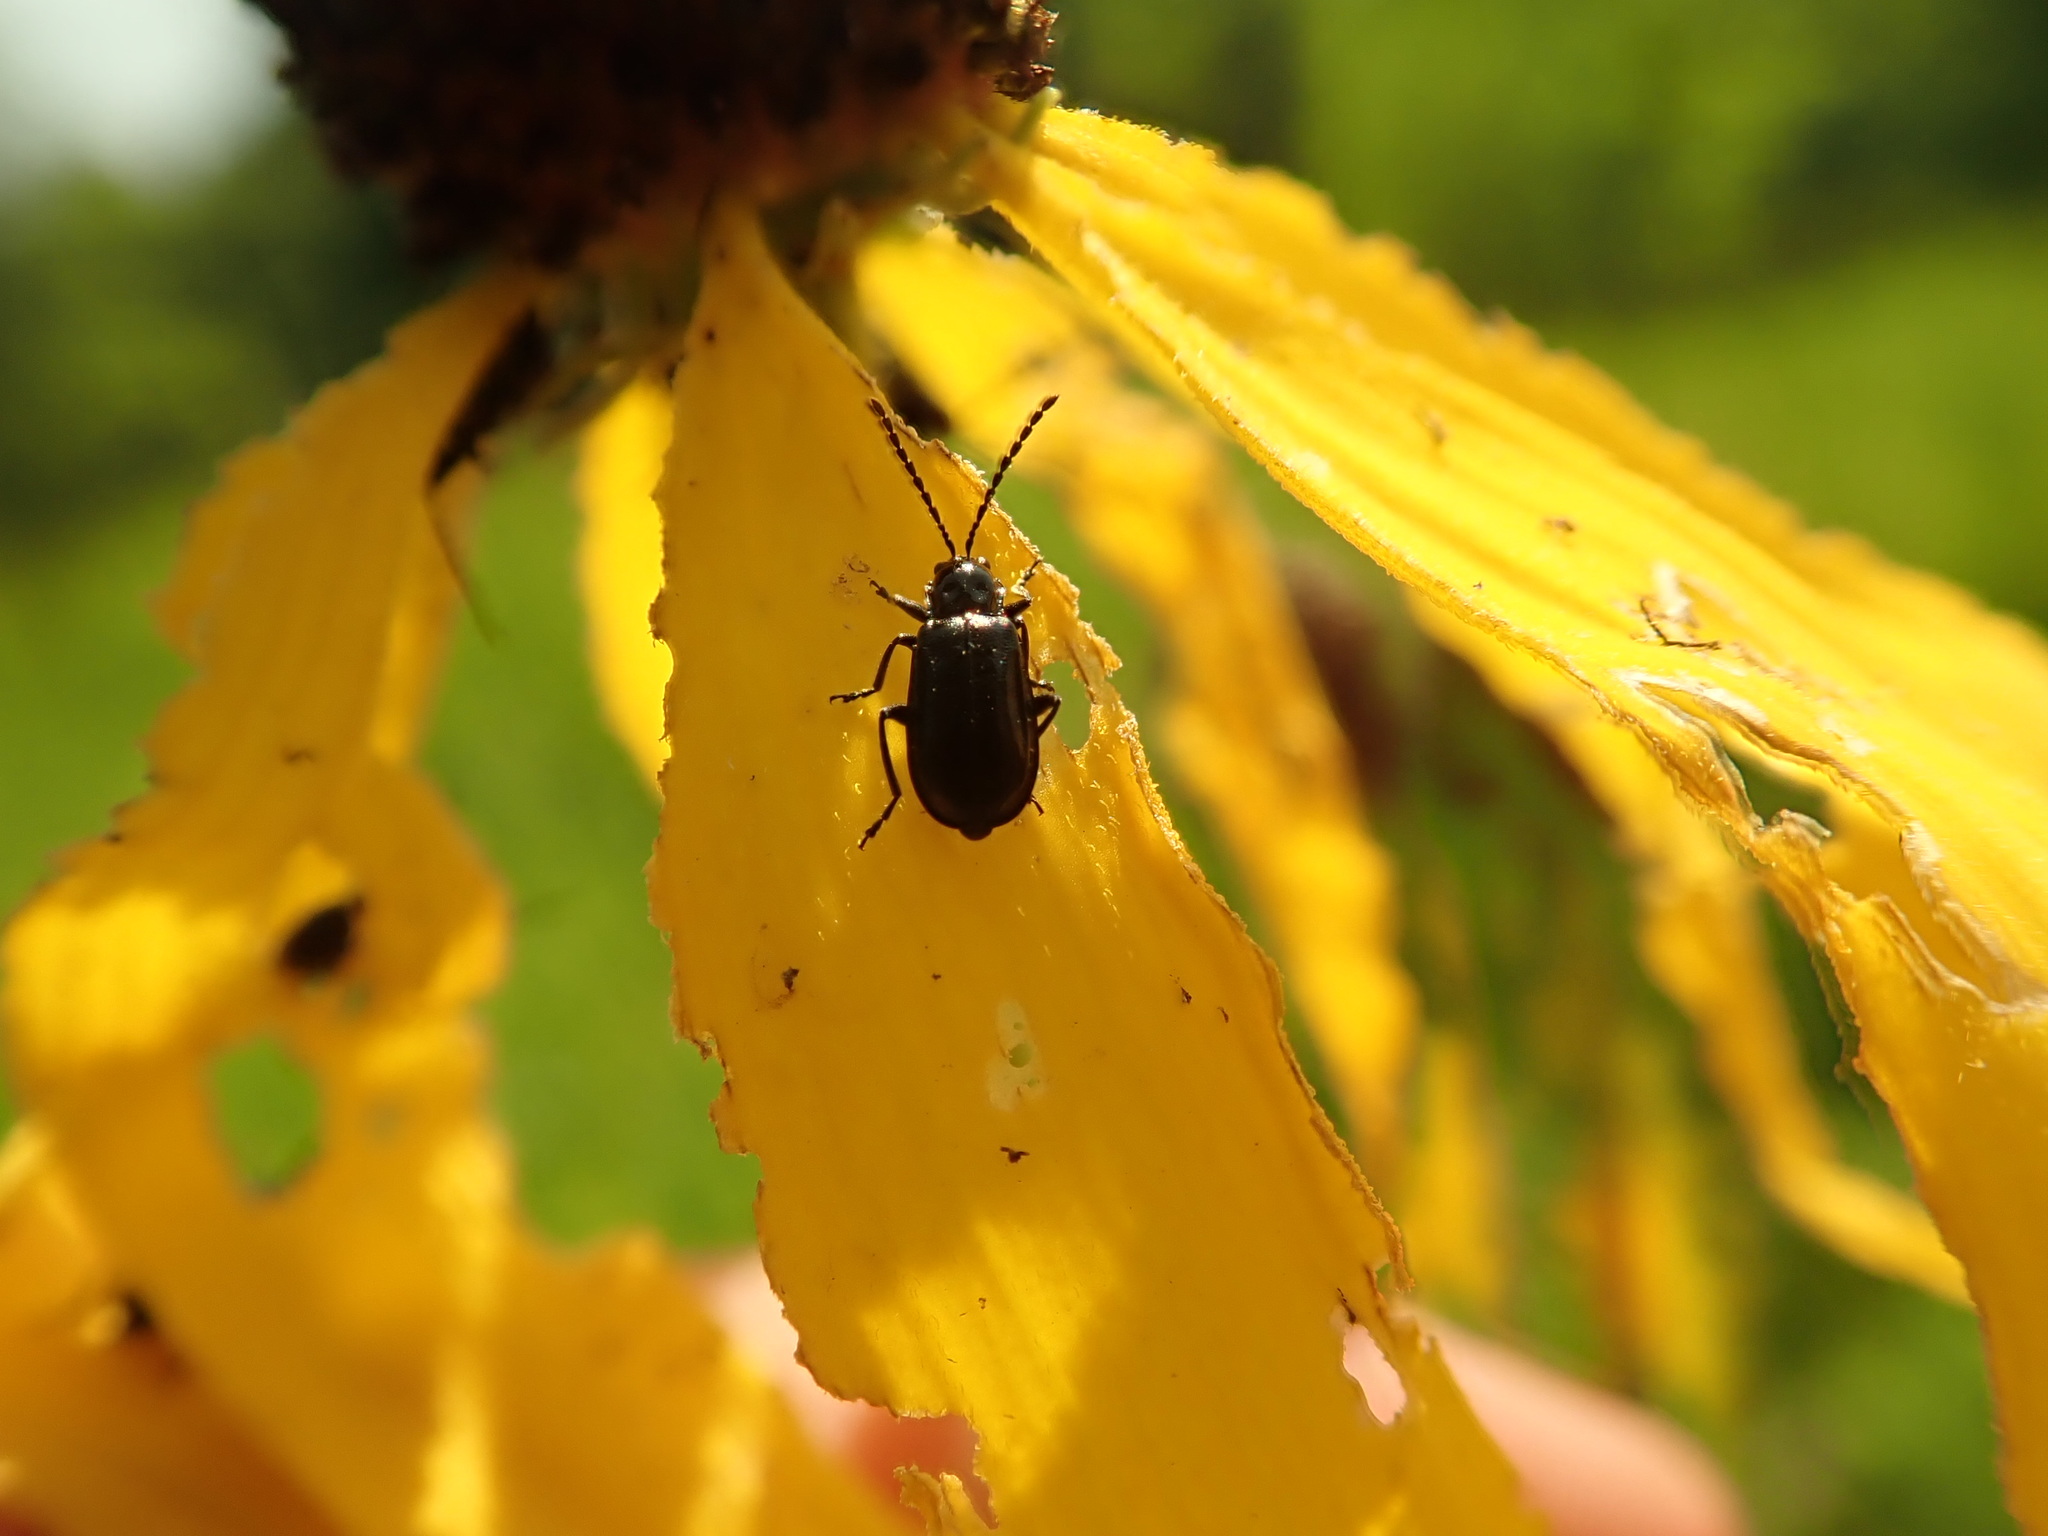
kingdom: Animalia
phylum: Arthropoda
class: Insecta
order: Coleoptera
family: Chrysomelidae
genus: Diabrotica
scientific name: Diabrotica cristata
